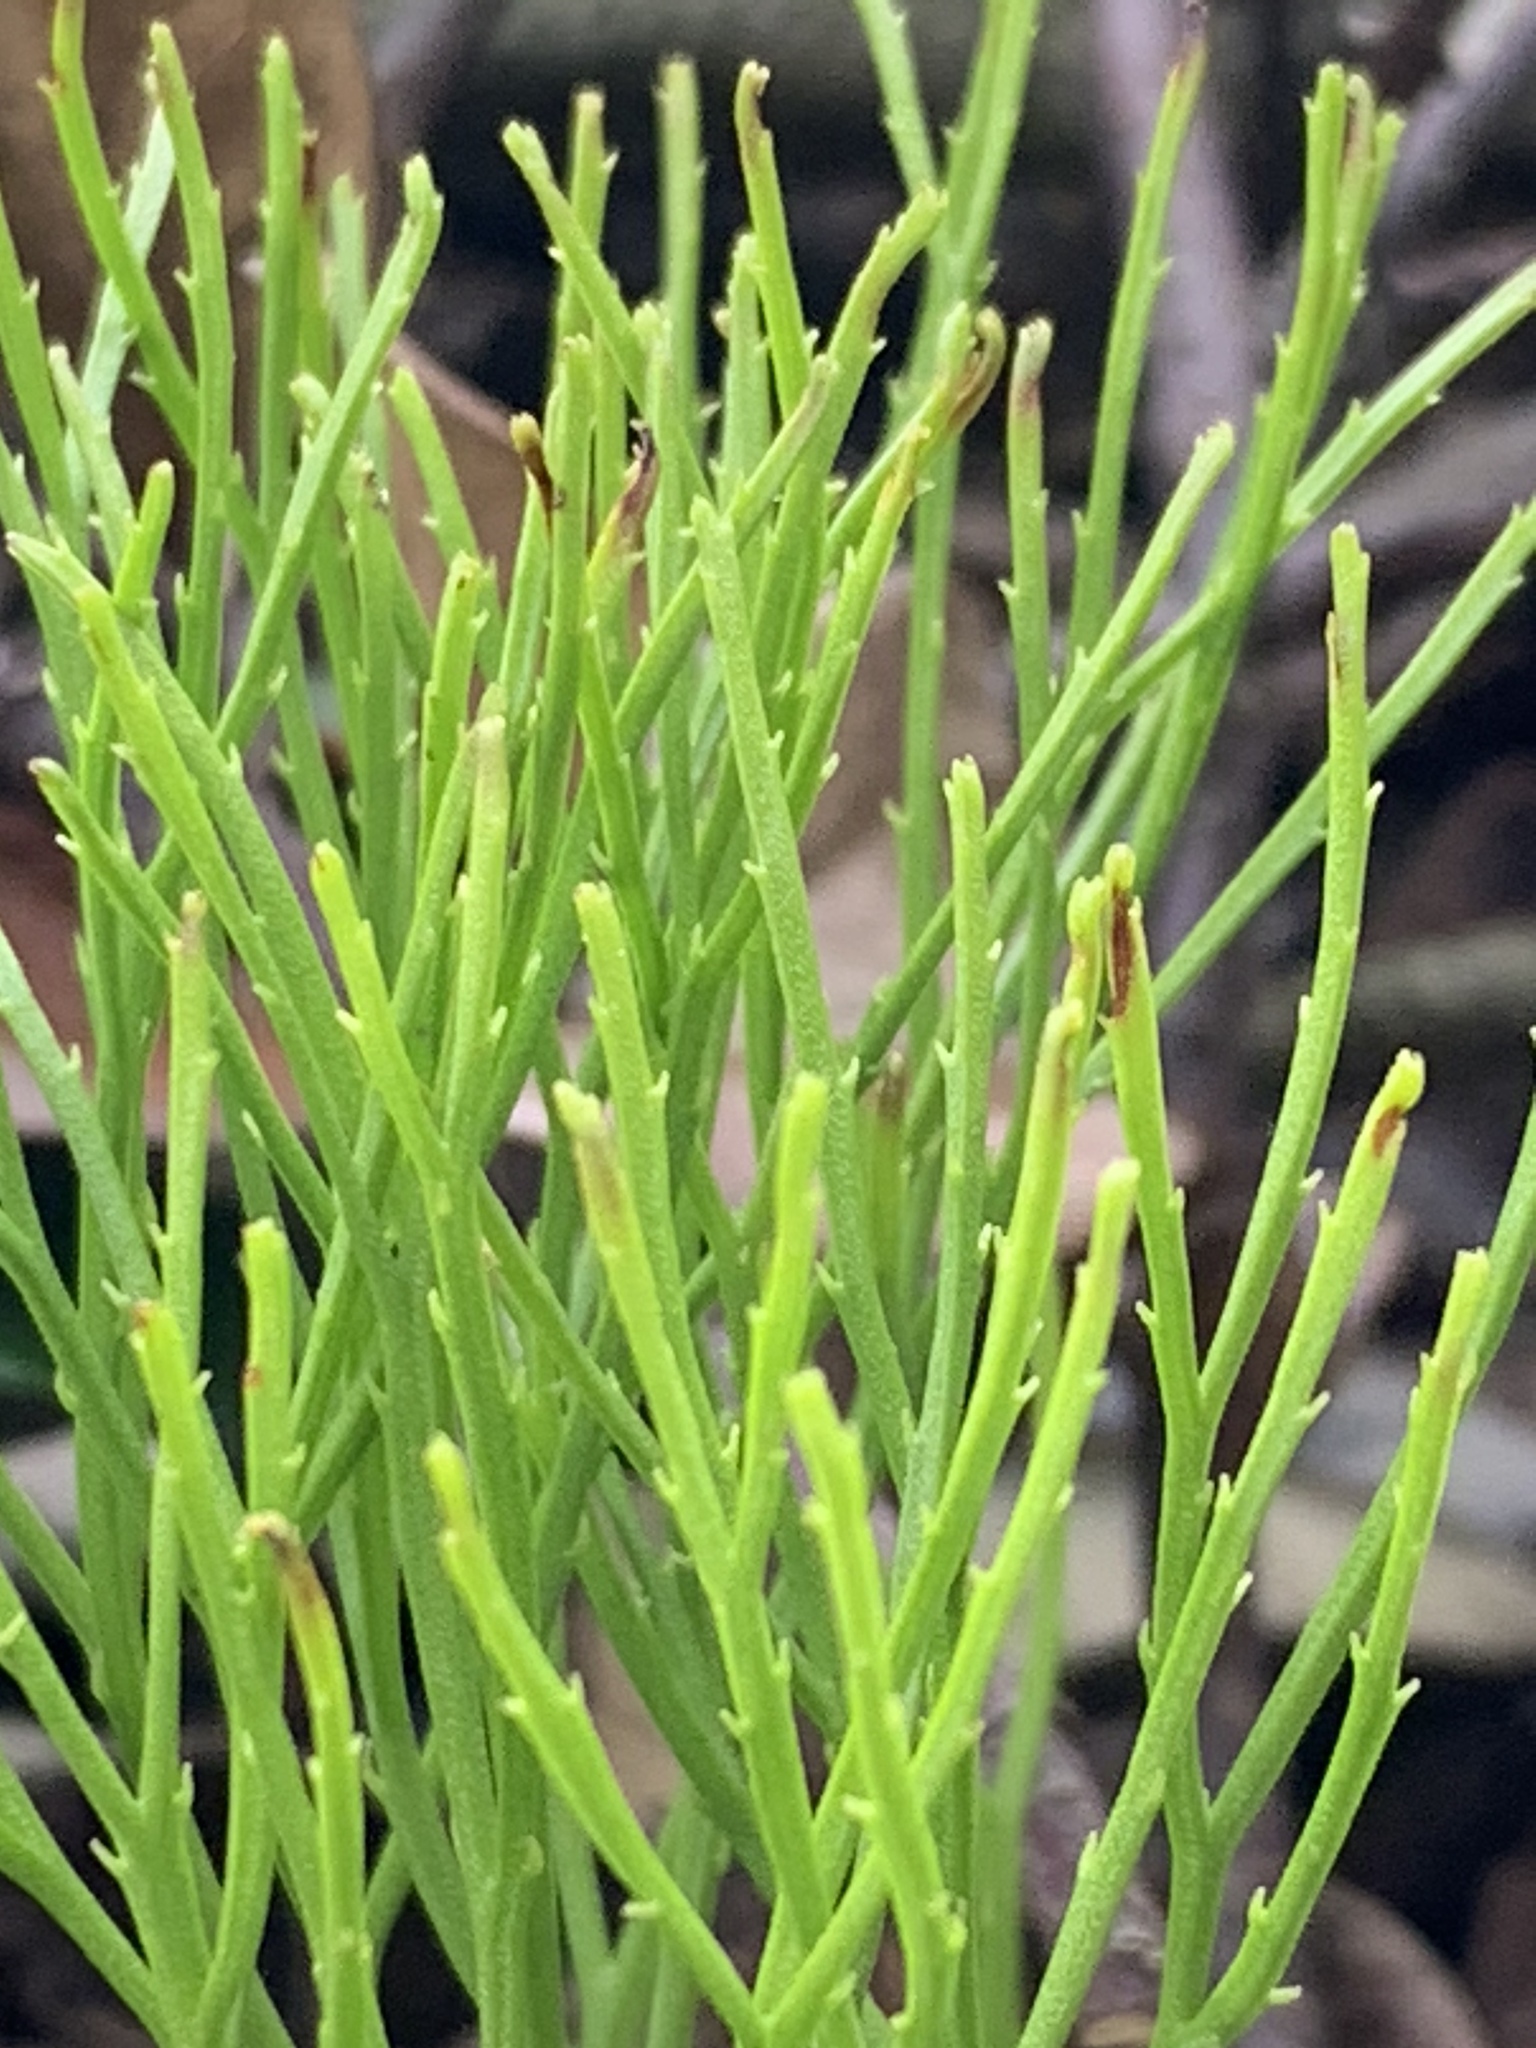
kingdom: Plantae
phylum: Tracheophyta
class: Polypodiopsida
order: Psilotales
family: Psilotaceae
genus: Psilotum
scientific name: Psilotum nudum
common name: Skeleton fork fern
